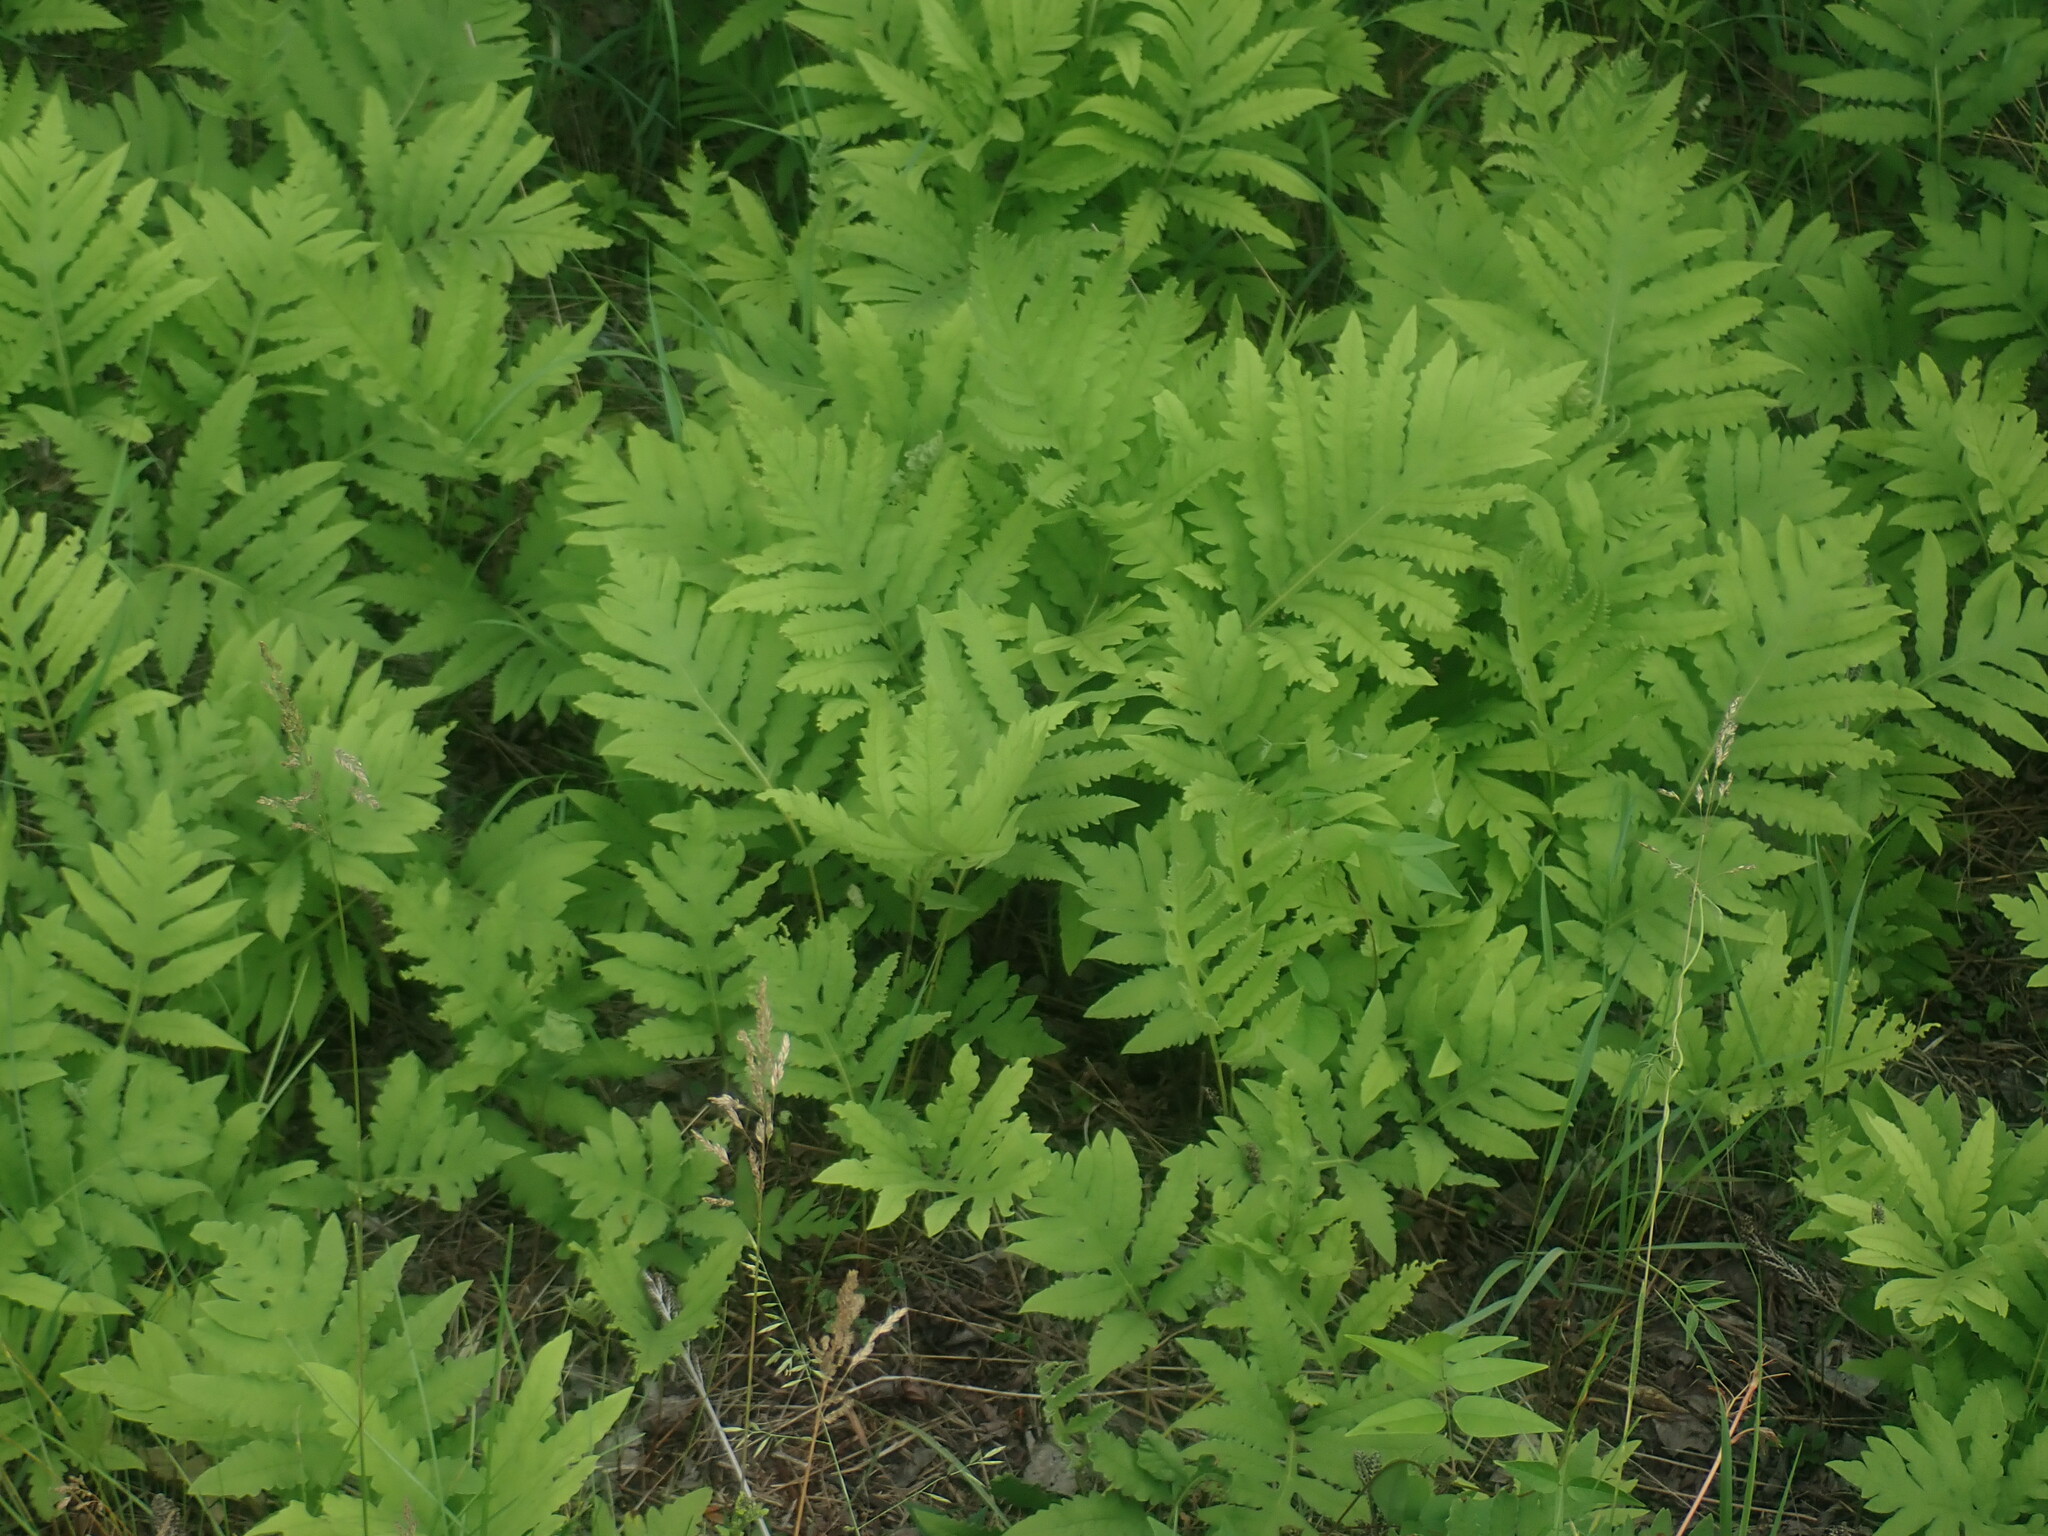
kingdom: Plantae
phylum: Tracheophyta
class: Polypodiopsida
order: Polypodiales
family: Onocleaceae
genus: Onoclea
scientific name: Onoclea sensibilis
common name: Sensitive fern
